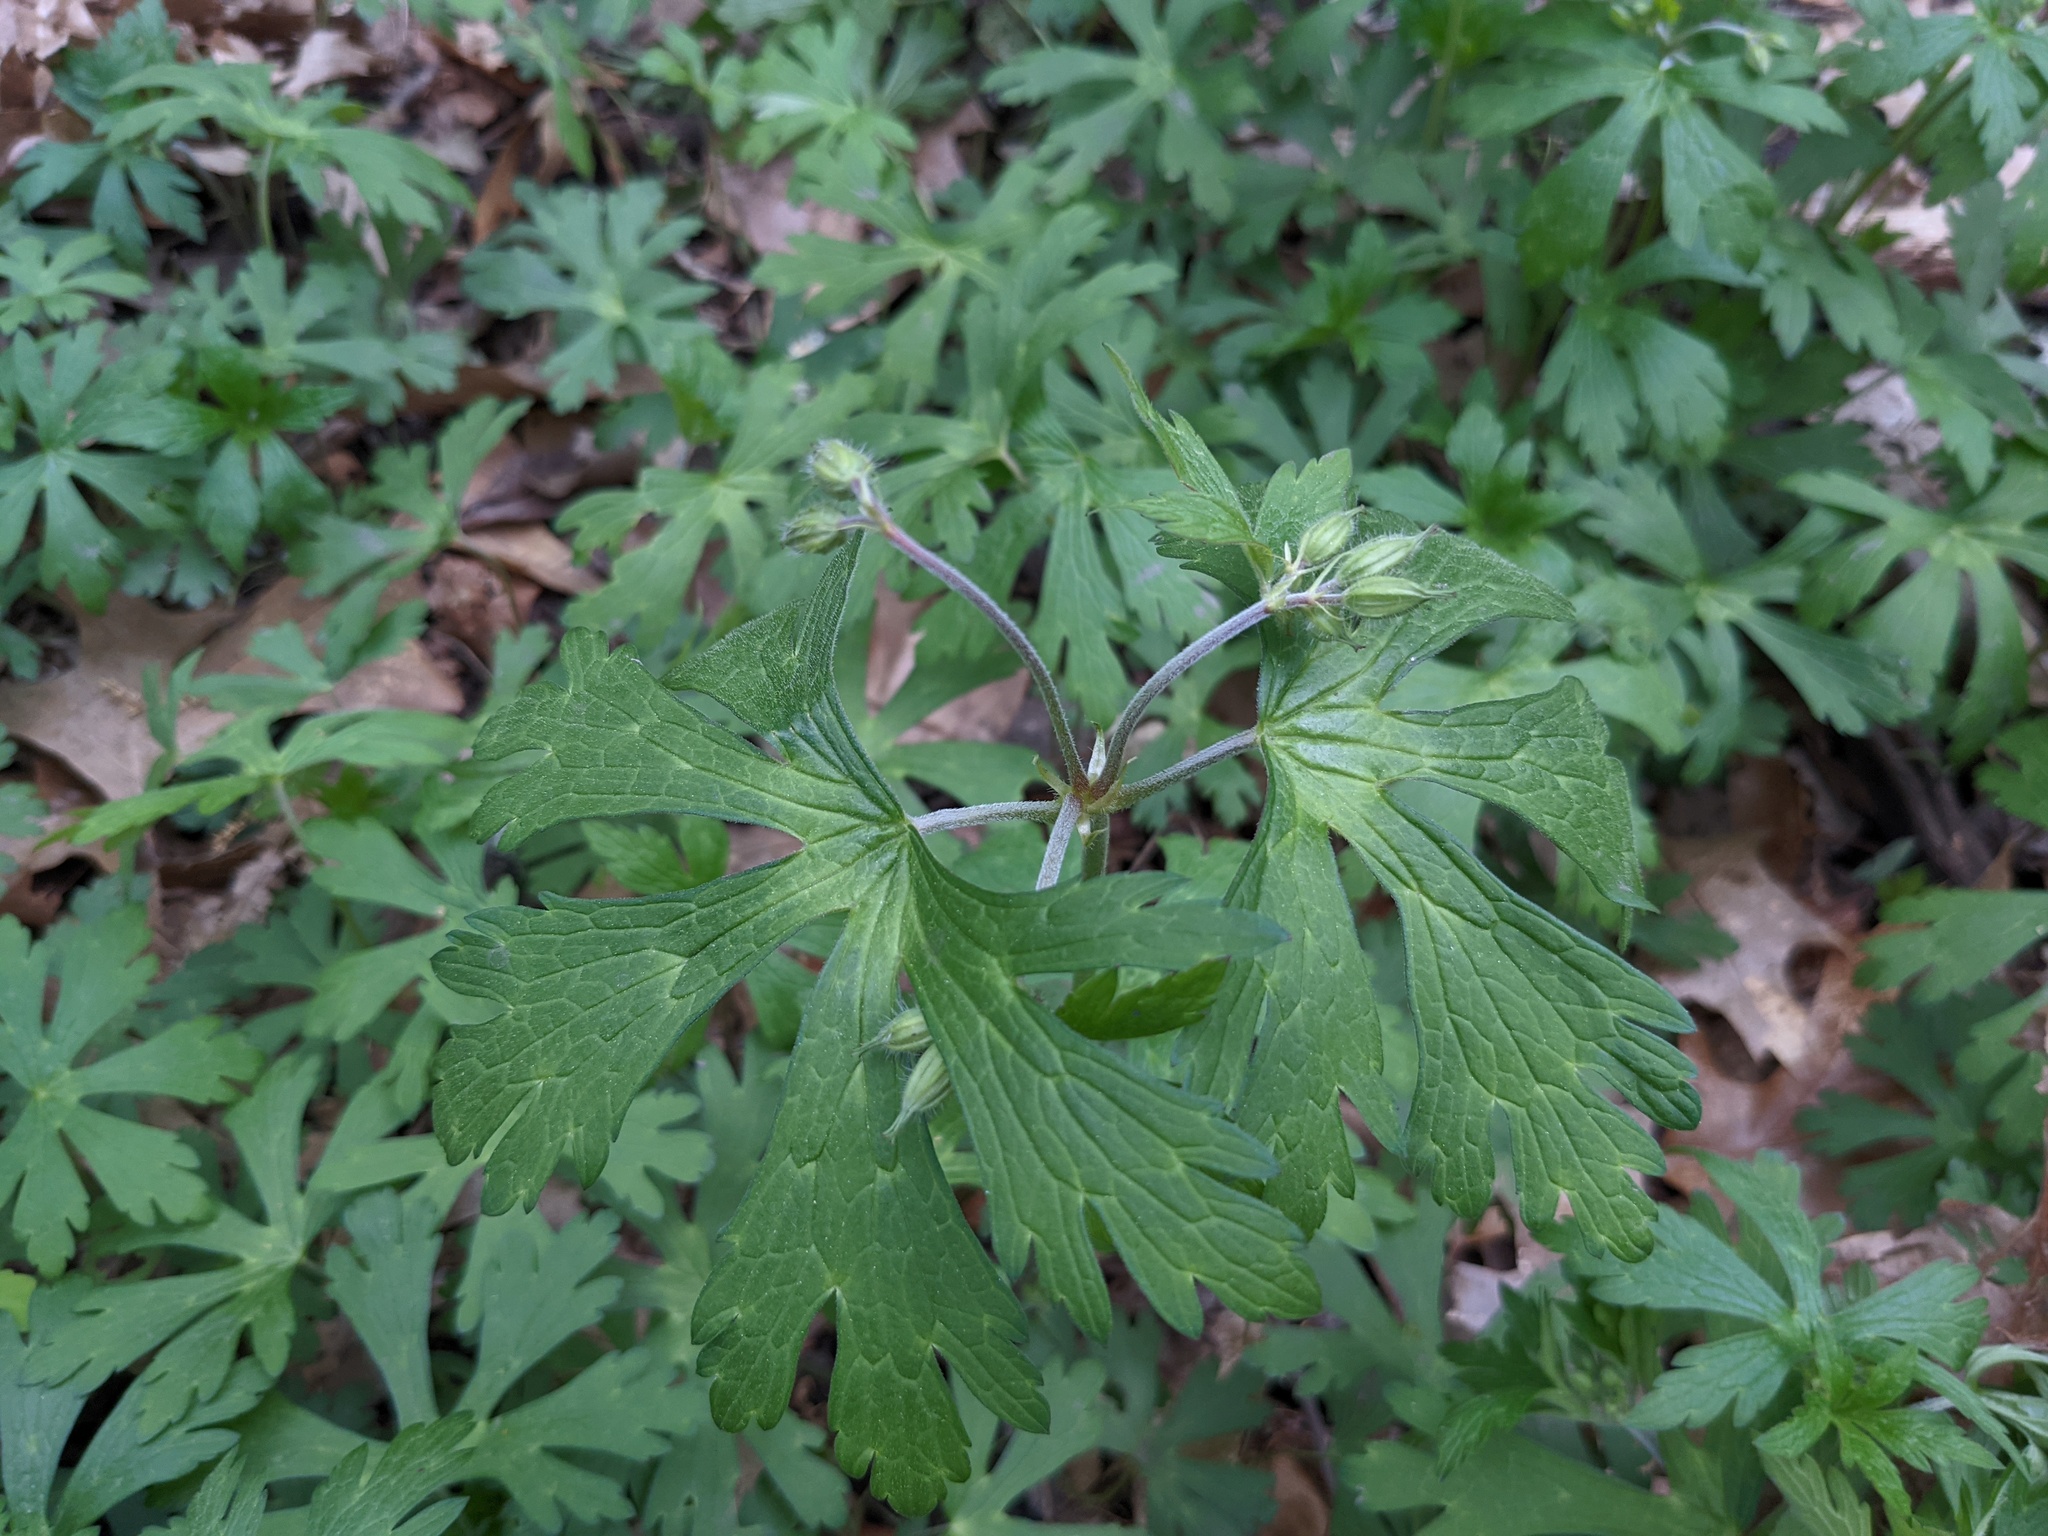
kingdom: Plantae
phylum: Tracheophyta
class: Magnoliopsida
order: Geraniales
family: Geraniaceae
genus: Geranium
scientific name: Geranium maculatum
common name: Spotted geranium
